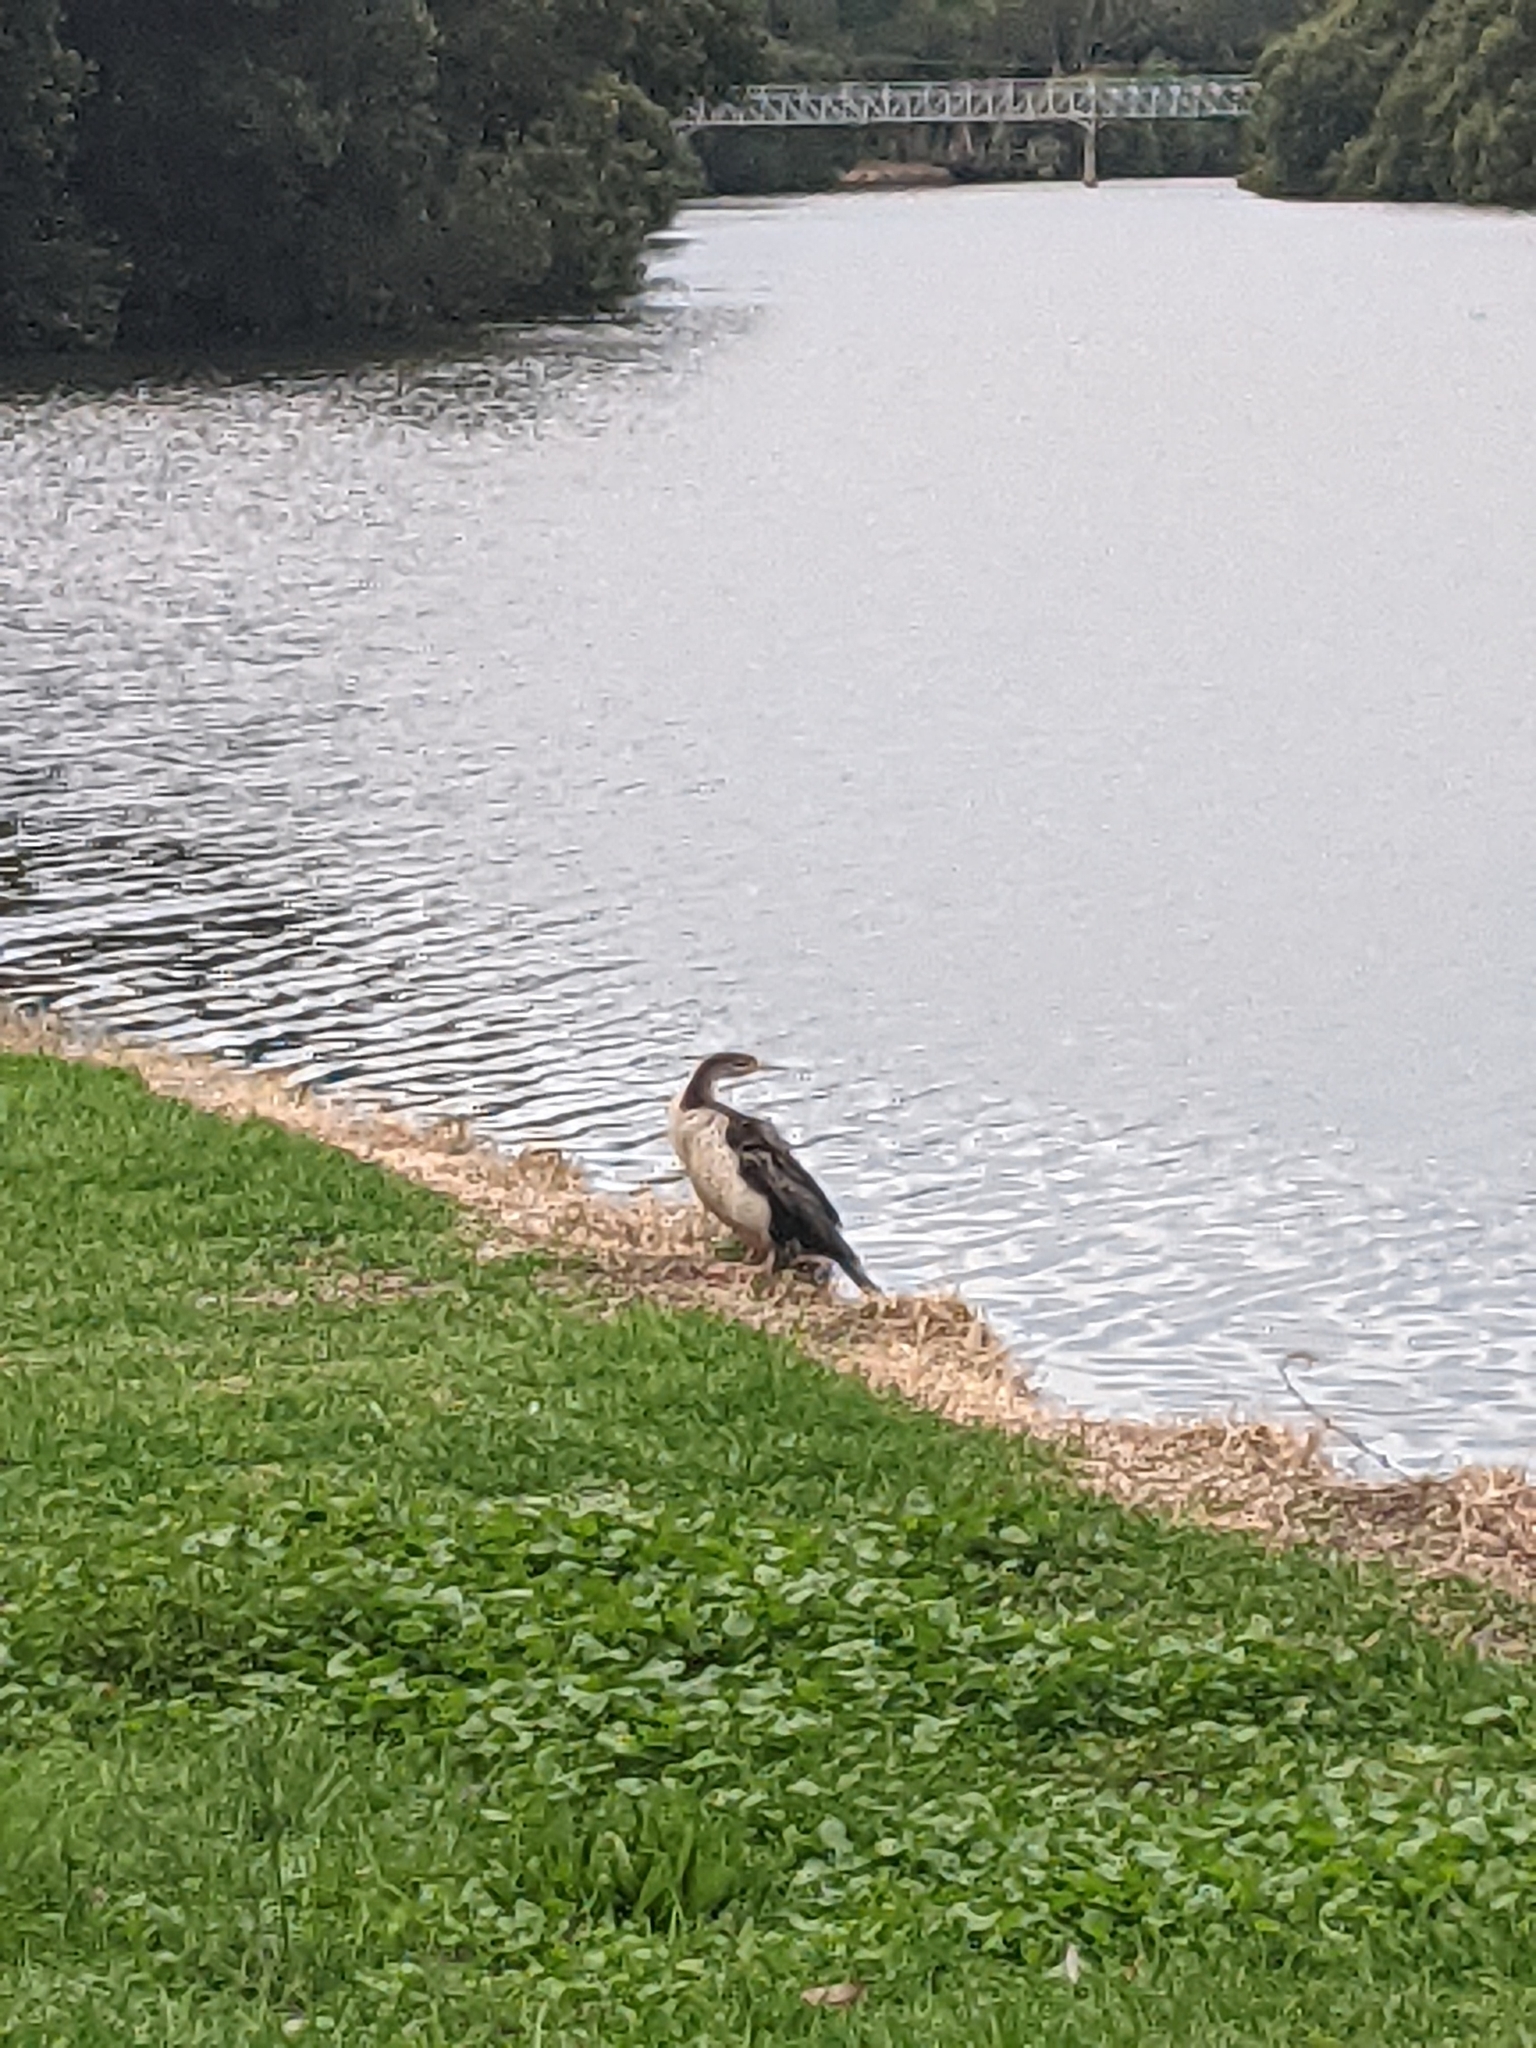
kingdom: Animalia
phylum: Chordata
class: Aves
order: Suliformes
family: Anhingidae
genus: Anhinga
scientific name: Anhinga novaehollandiae
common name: Australasian darter
